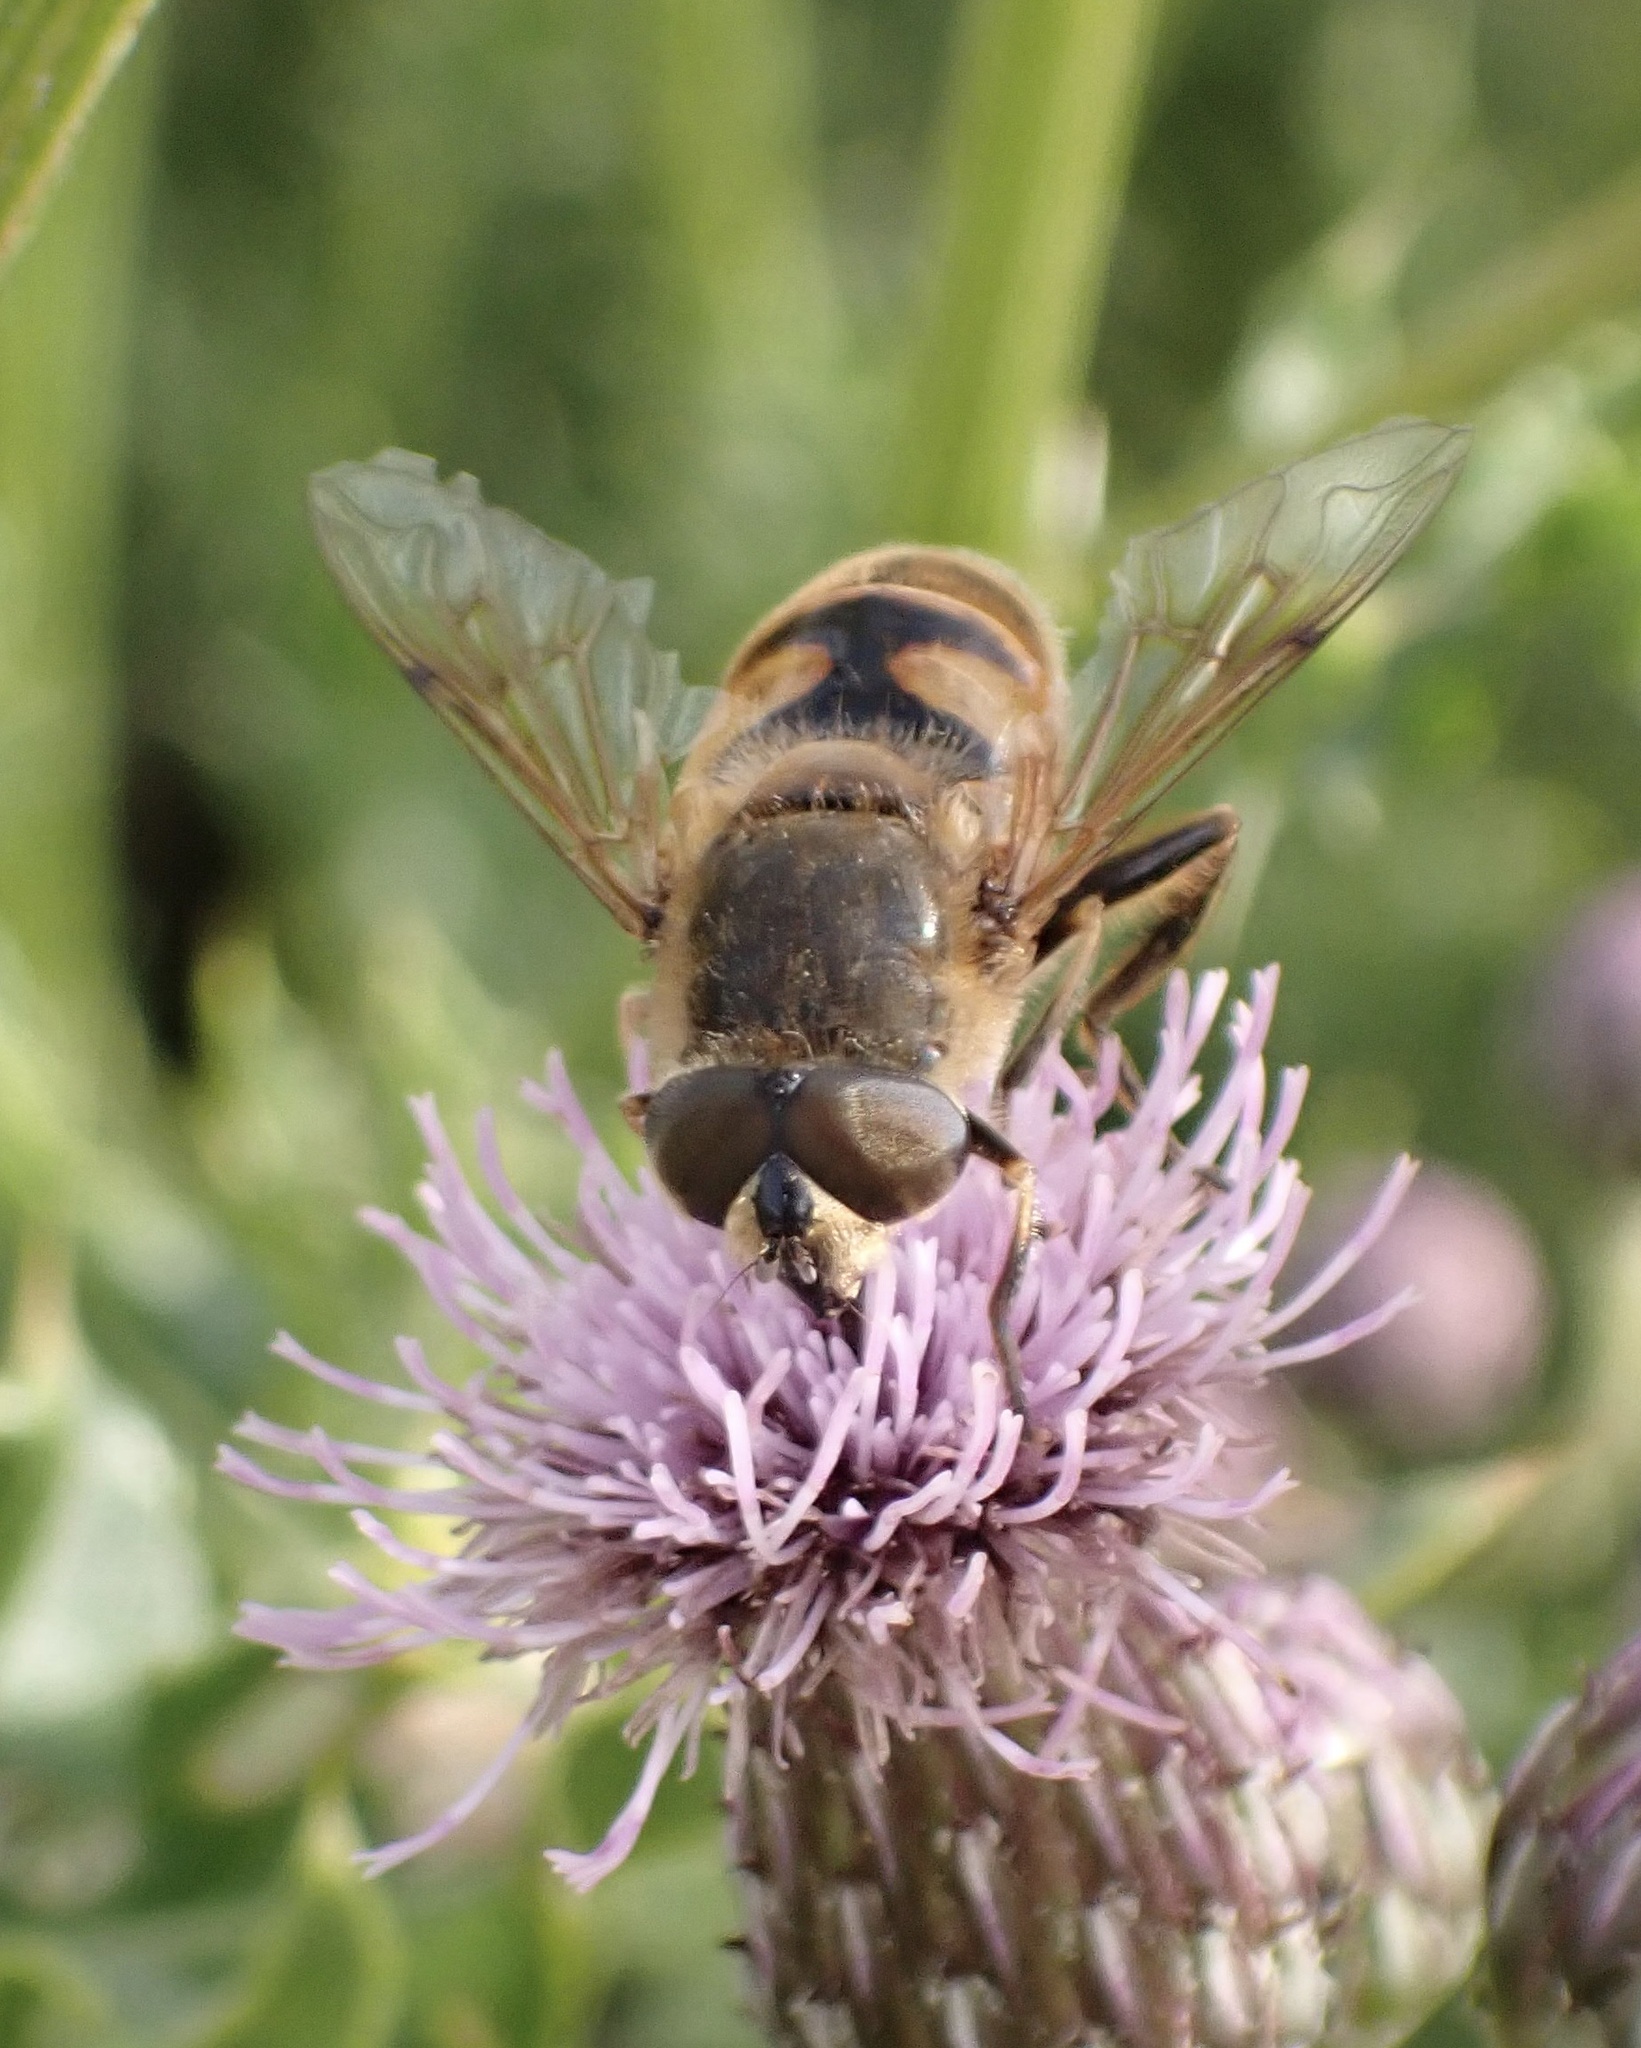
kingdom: Animalia
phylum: Arthropoda
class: Insecta
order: Diptera
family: Syrphidae
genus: Eristalis
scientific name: Eristalis tenax
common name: Drone fly
